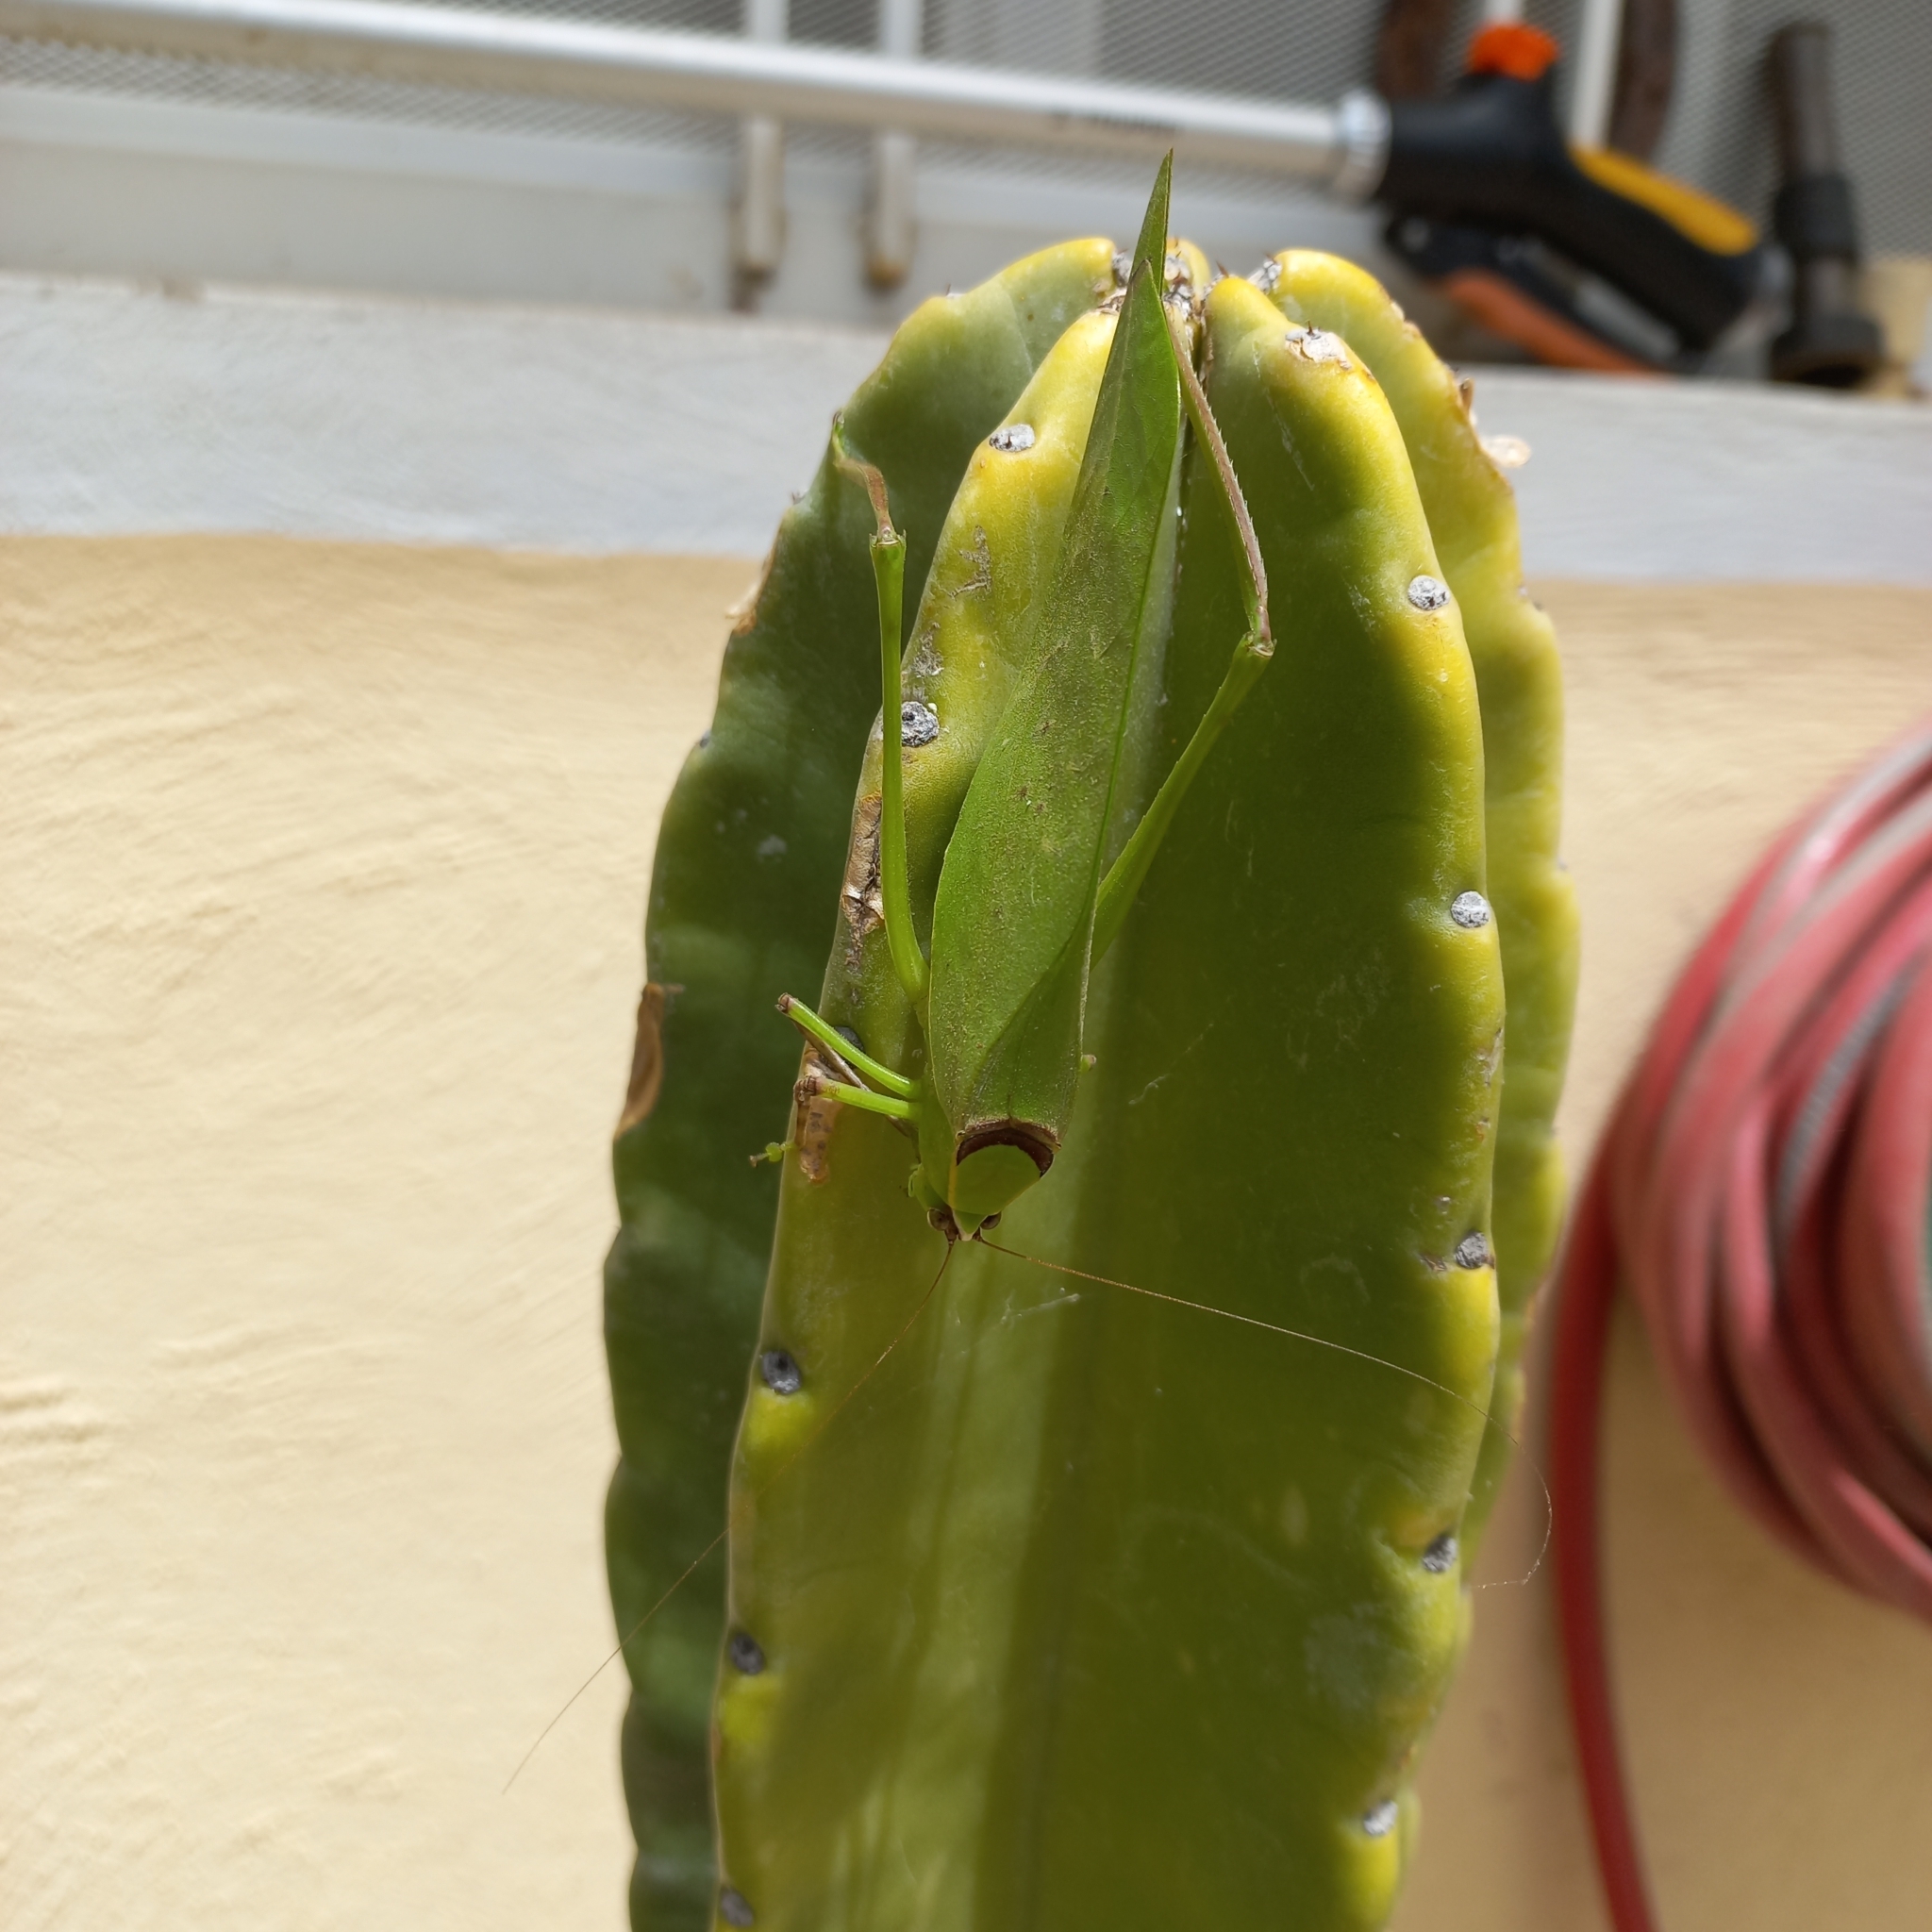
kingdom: Animalia
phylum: Arthropoda
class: Insecta
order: Orthoptera
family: Tettigoniidae
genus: Stilpnochlora
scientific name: Stilpnochlora thoracica
